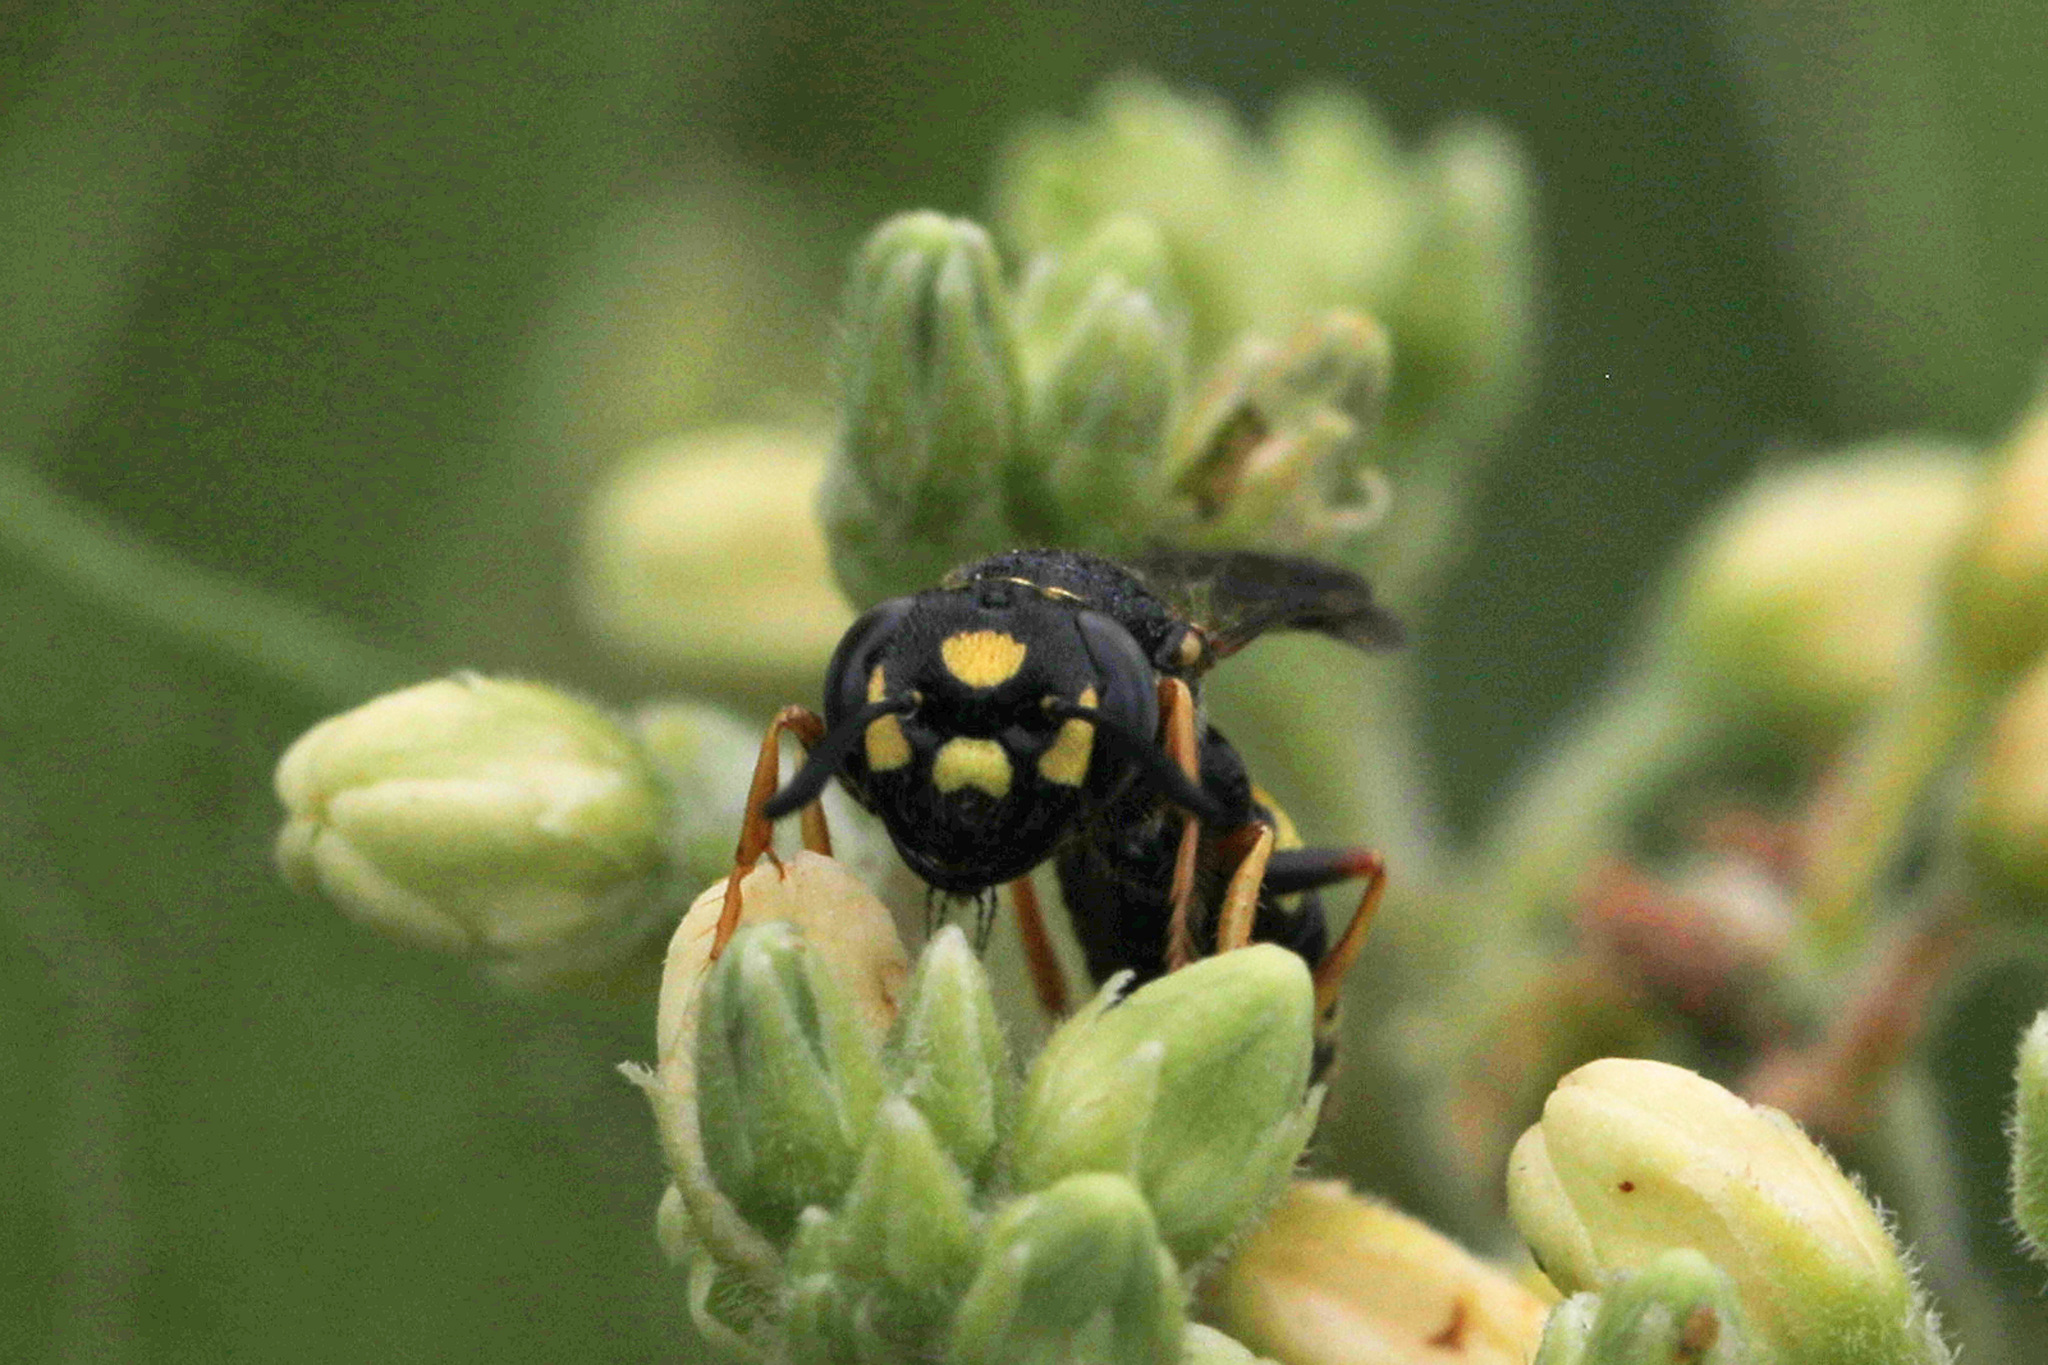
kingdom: Animalia
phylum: Arthropoda
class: Insecta
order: Hymenoptera
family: Crabronidae
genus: Philanthus
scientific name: Philanthus gibbosus
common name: Humped beewolf
